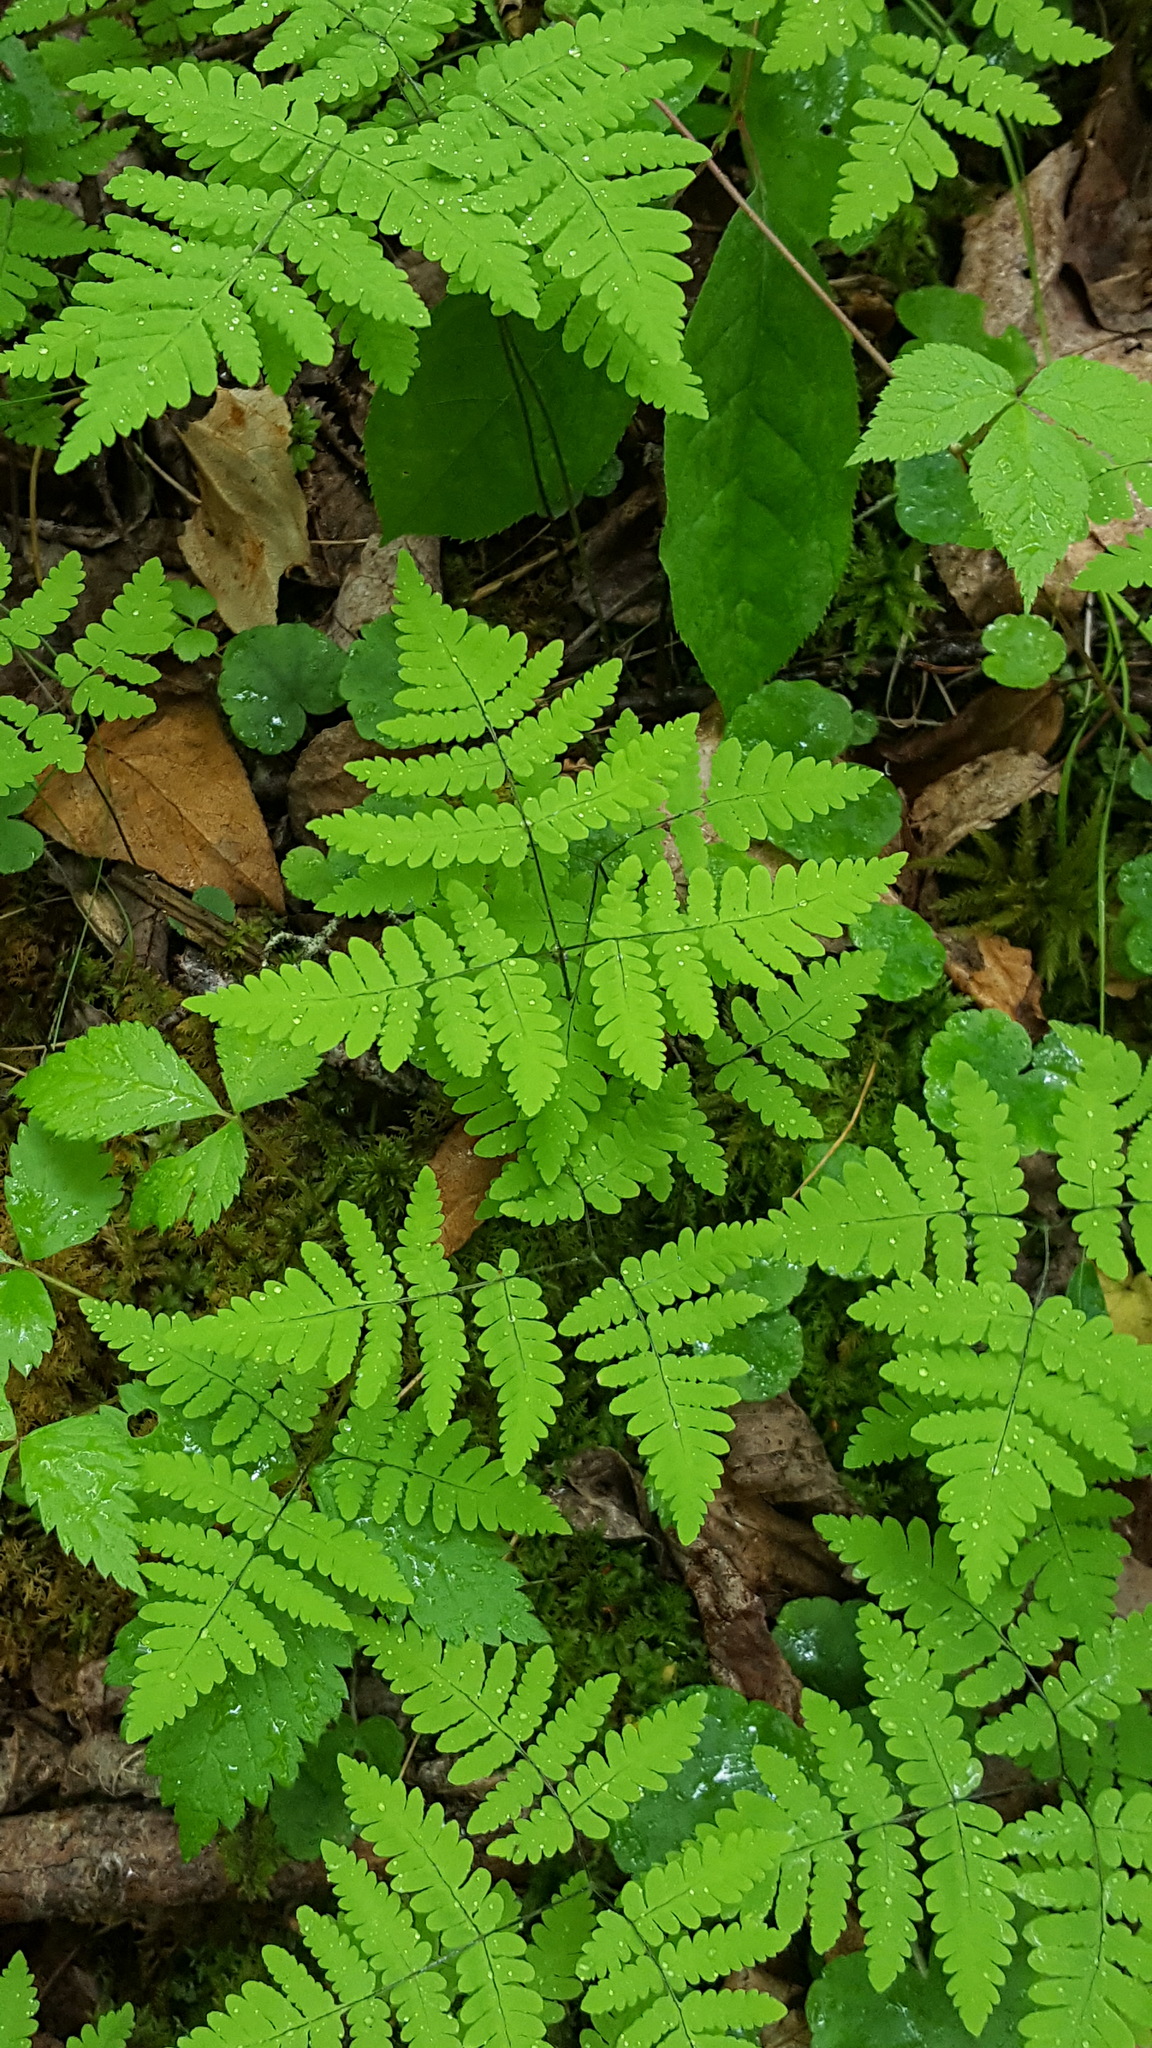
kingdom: Plantae
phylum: Tracheophyta
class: Polypodiopsida
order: Polypodiales
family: Cystopteridaceae
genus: Gymnocarpium
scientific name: Gymnocarpium dryopteris
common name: Oak fern
